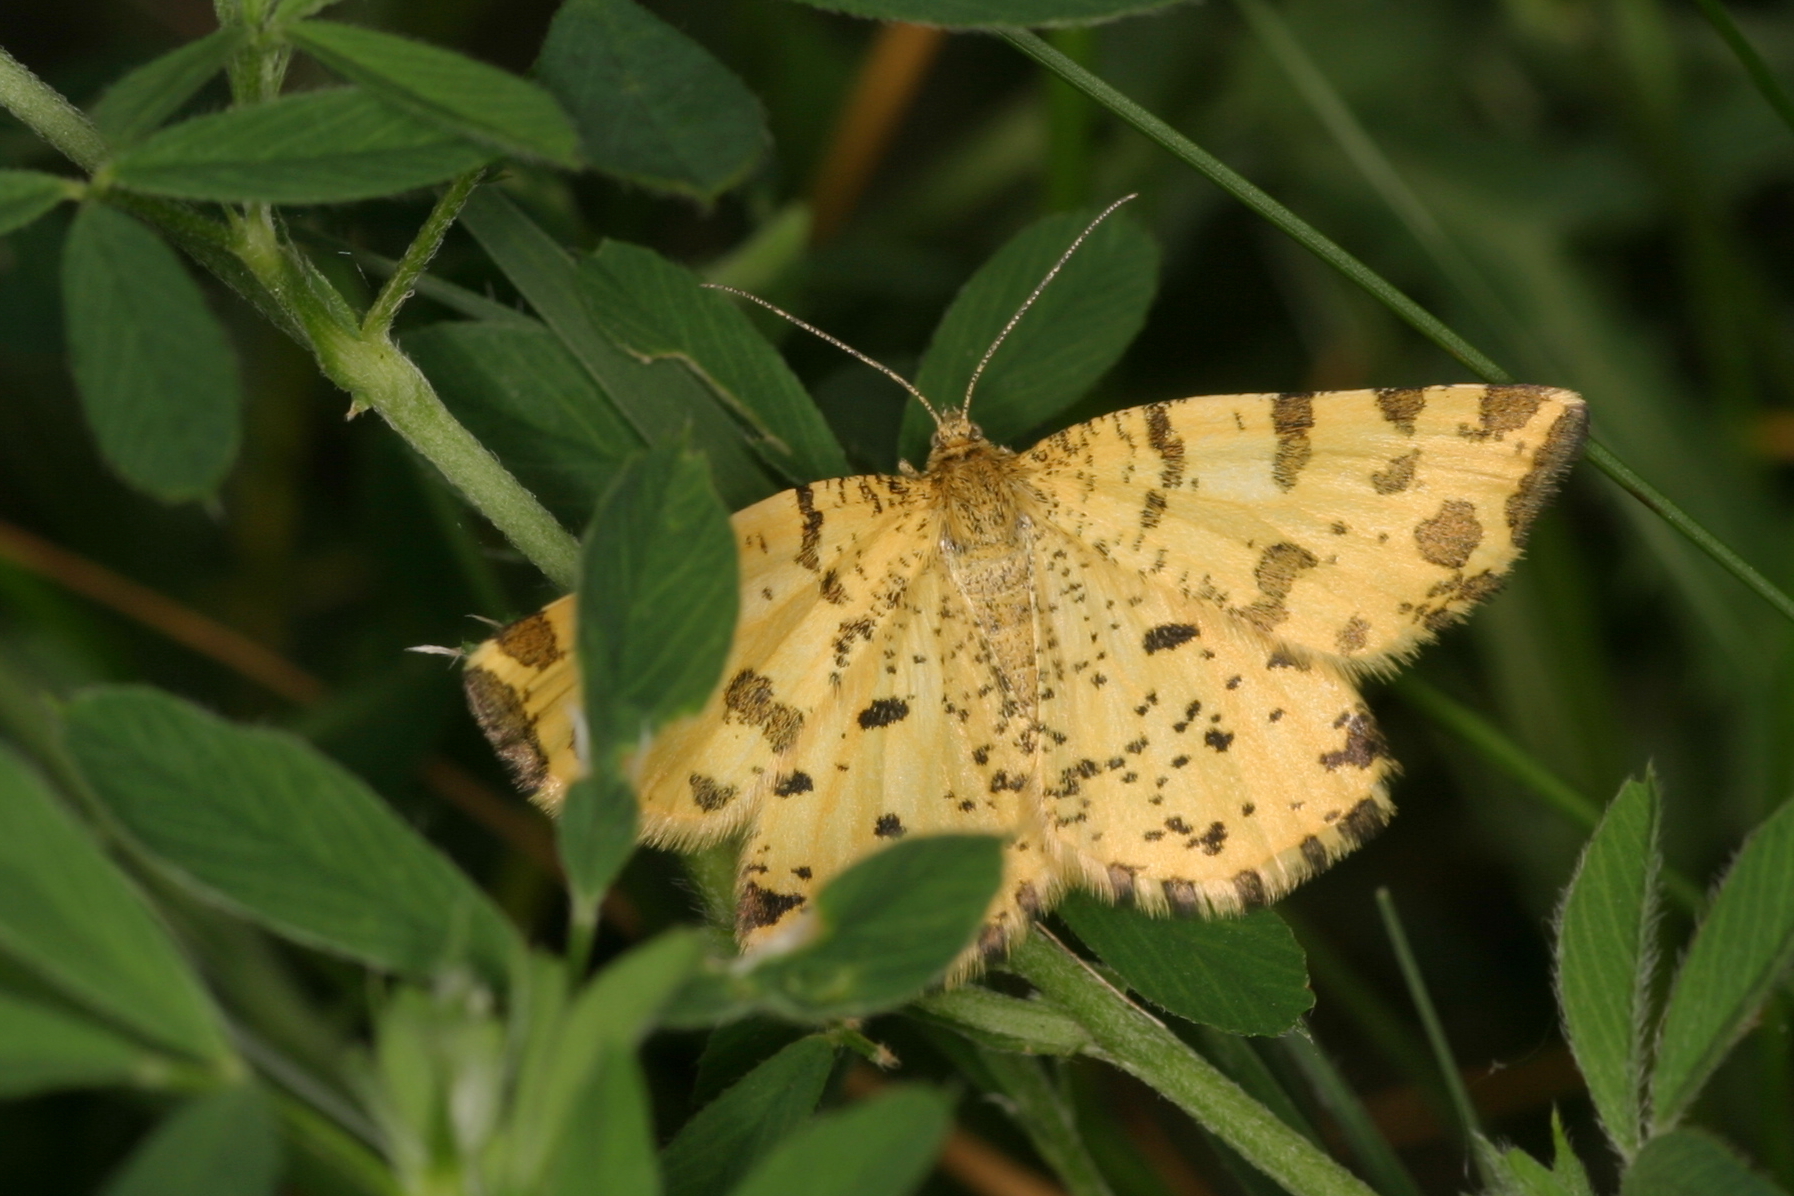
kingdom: Animalia
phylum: Arthropoda
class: Insecta
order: Lepidoptera
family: Geometridae
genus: Pseudopanthera
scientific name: Pseudopanthera macularia
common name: Speckled yellow
